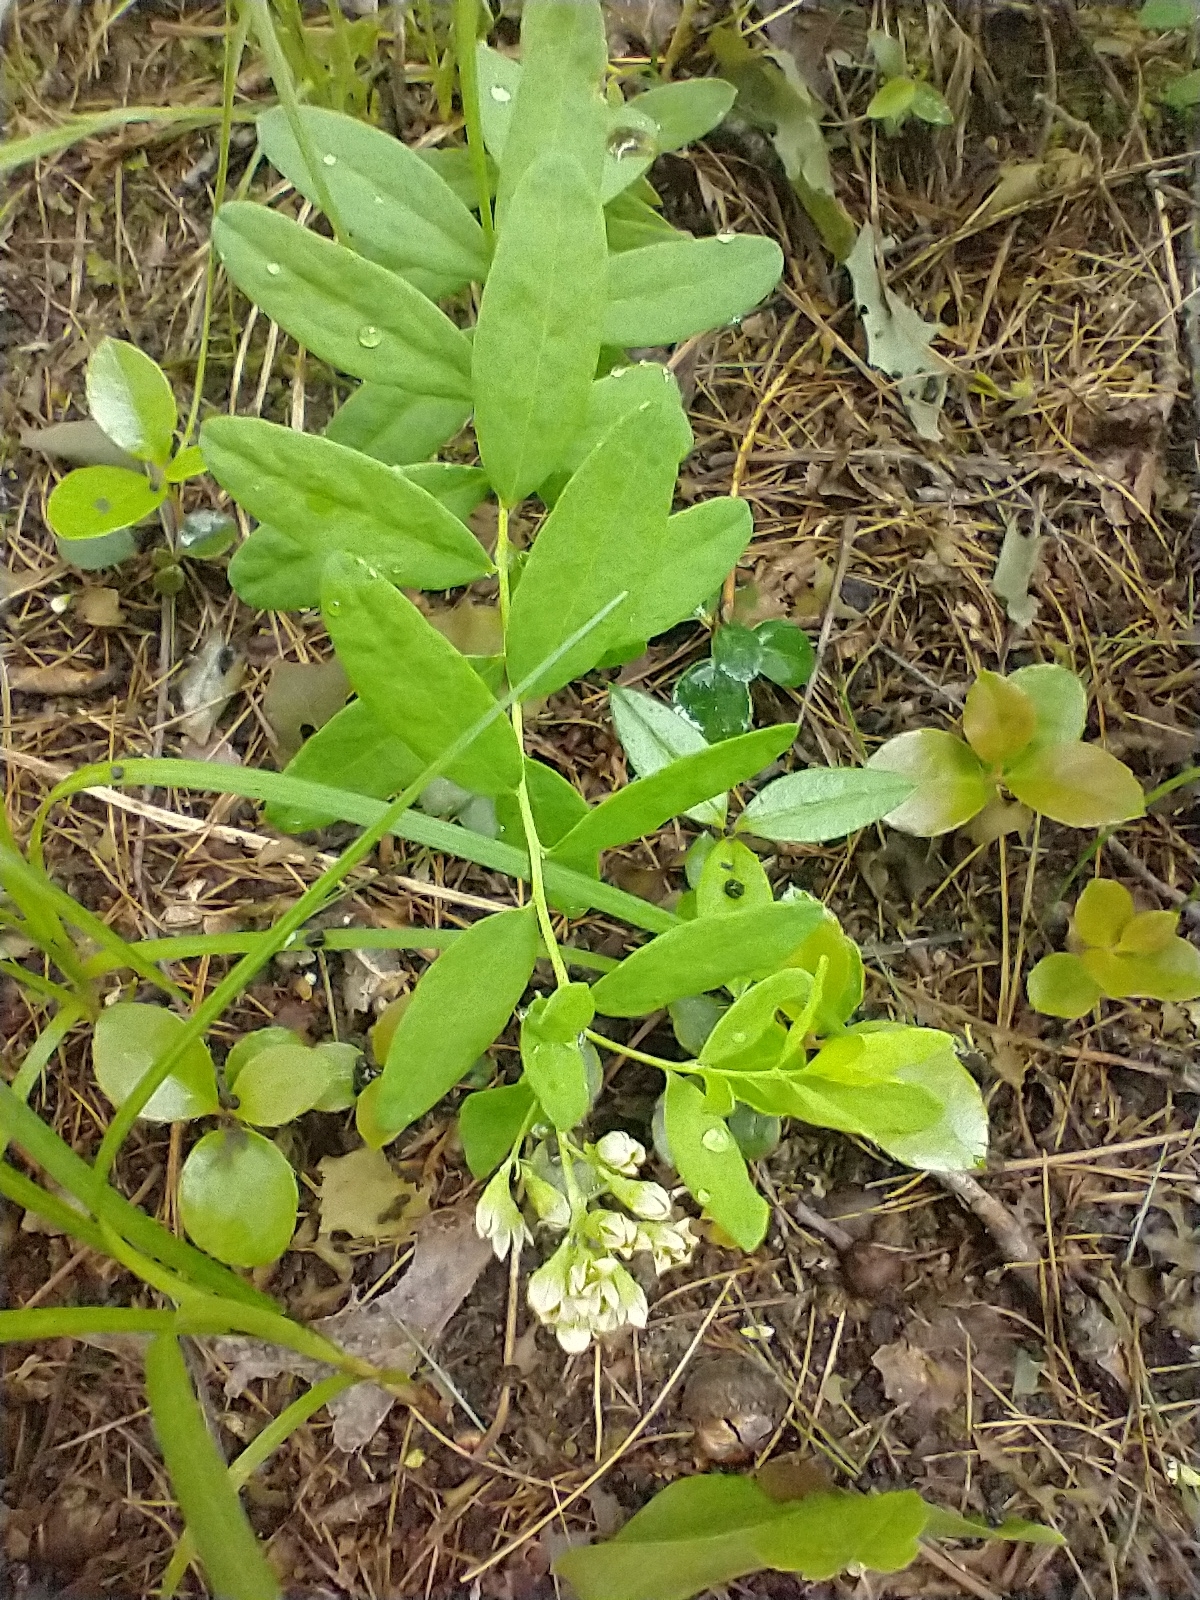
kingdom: Plantae
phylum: Tracheophyta
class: Magnoliopsida
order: Santalales
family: Comandraceae
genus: Comandra
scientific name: Comandra umbellata
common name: Bastard toadflax
